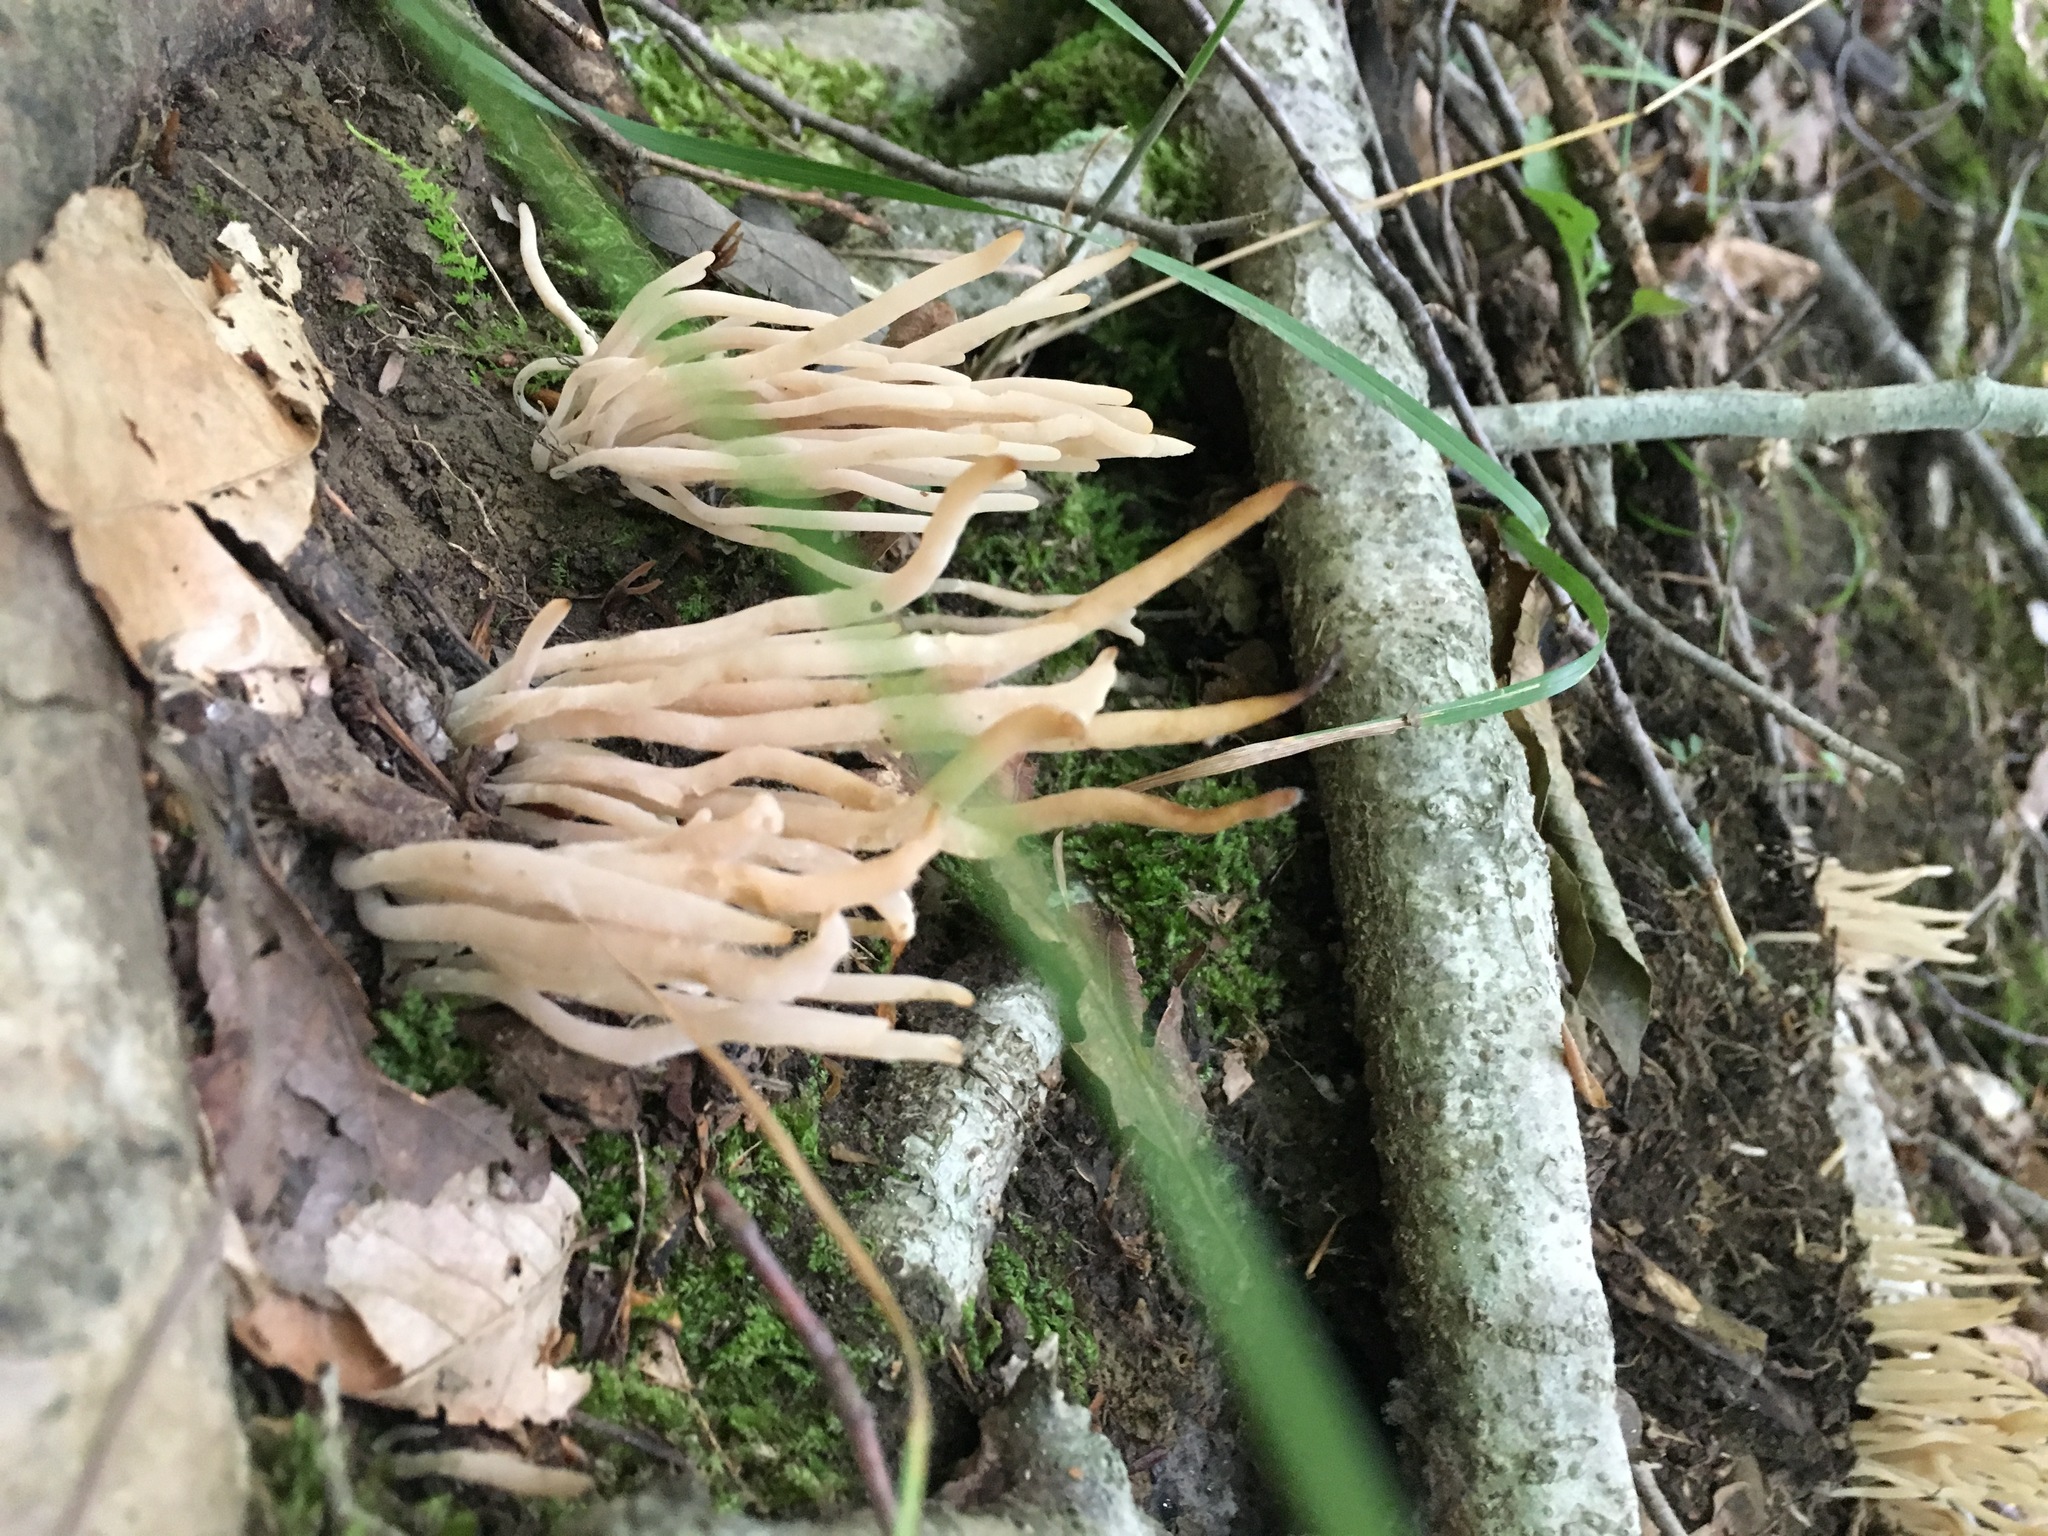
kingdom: Fungi
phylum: Basidiomycota
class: Agaricomycetes
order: Agaricales
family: Clavariaceae
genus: Clavaria
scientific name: Clavaria fragilis
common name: White spindles
